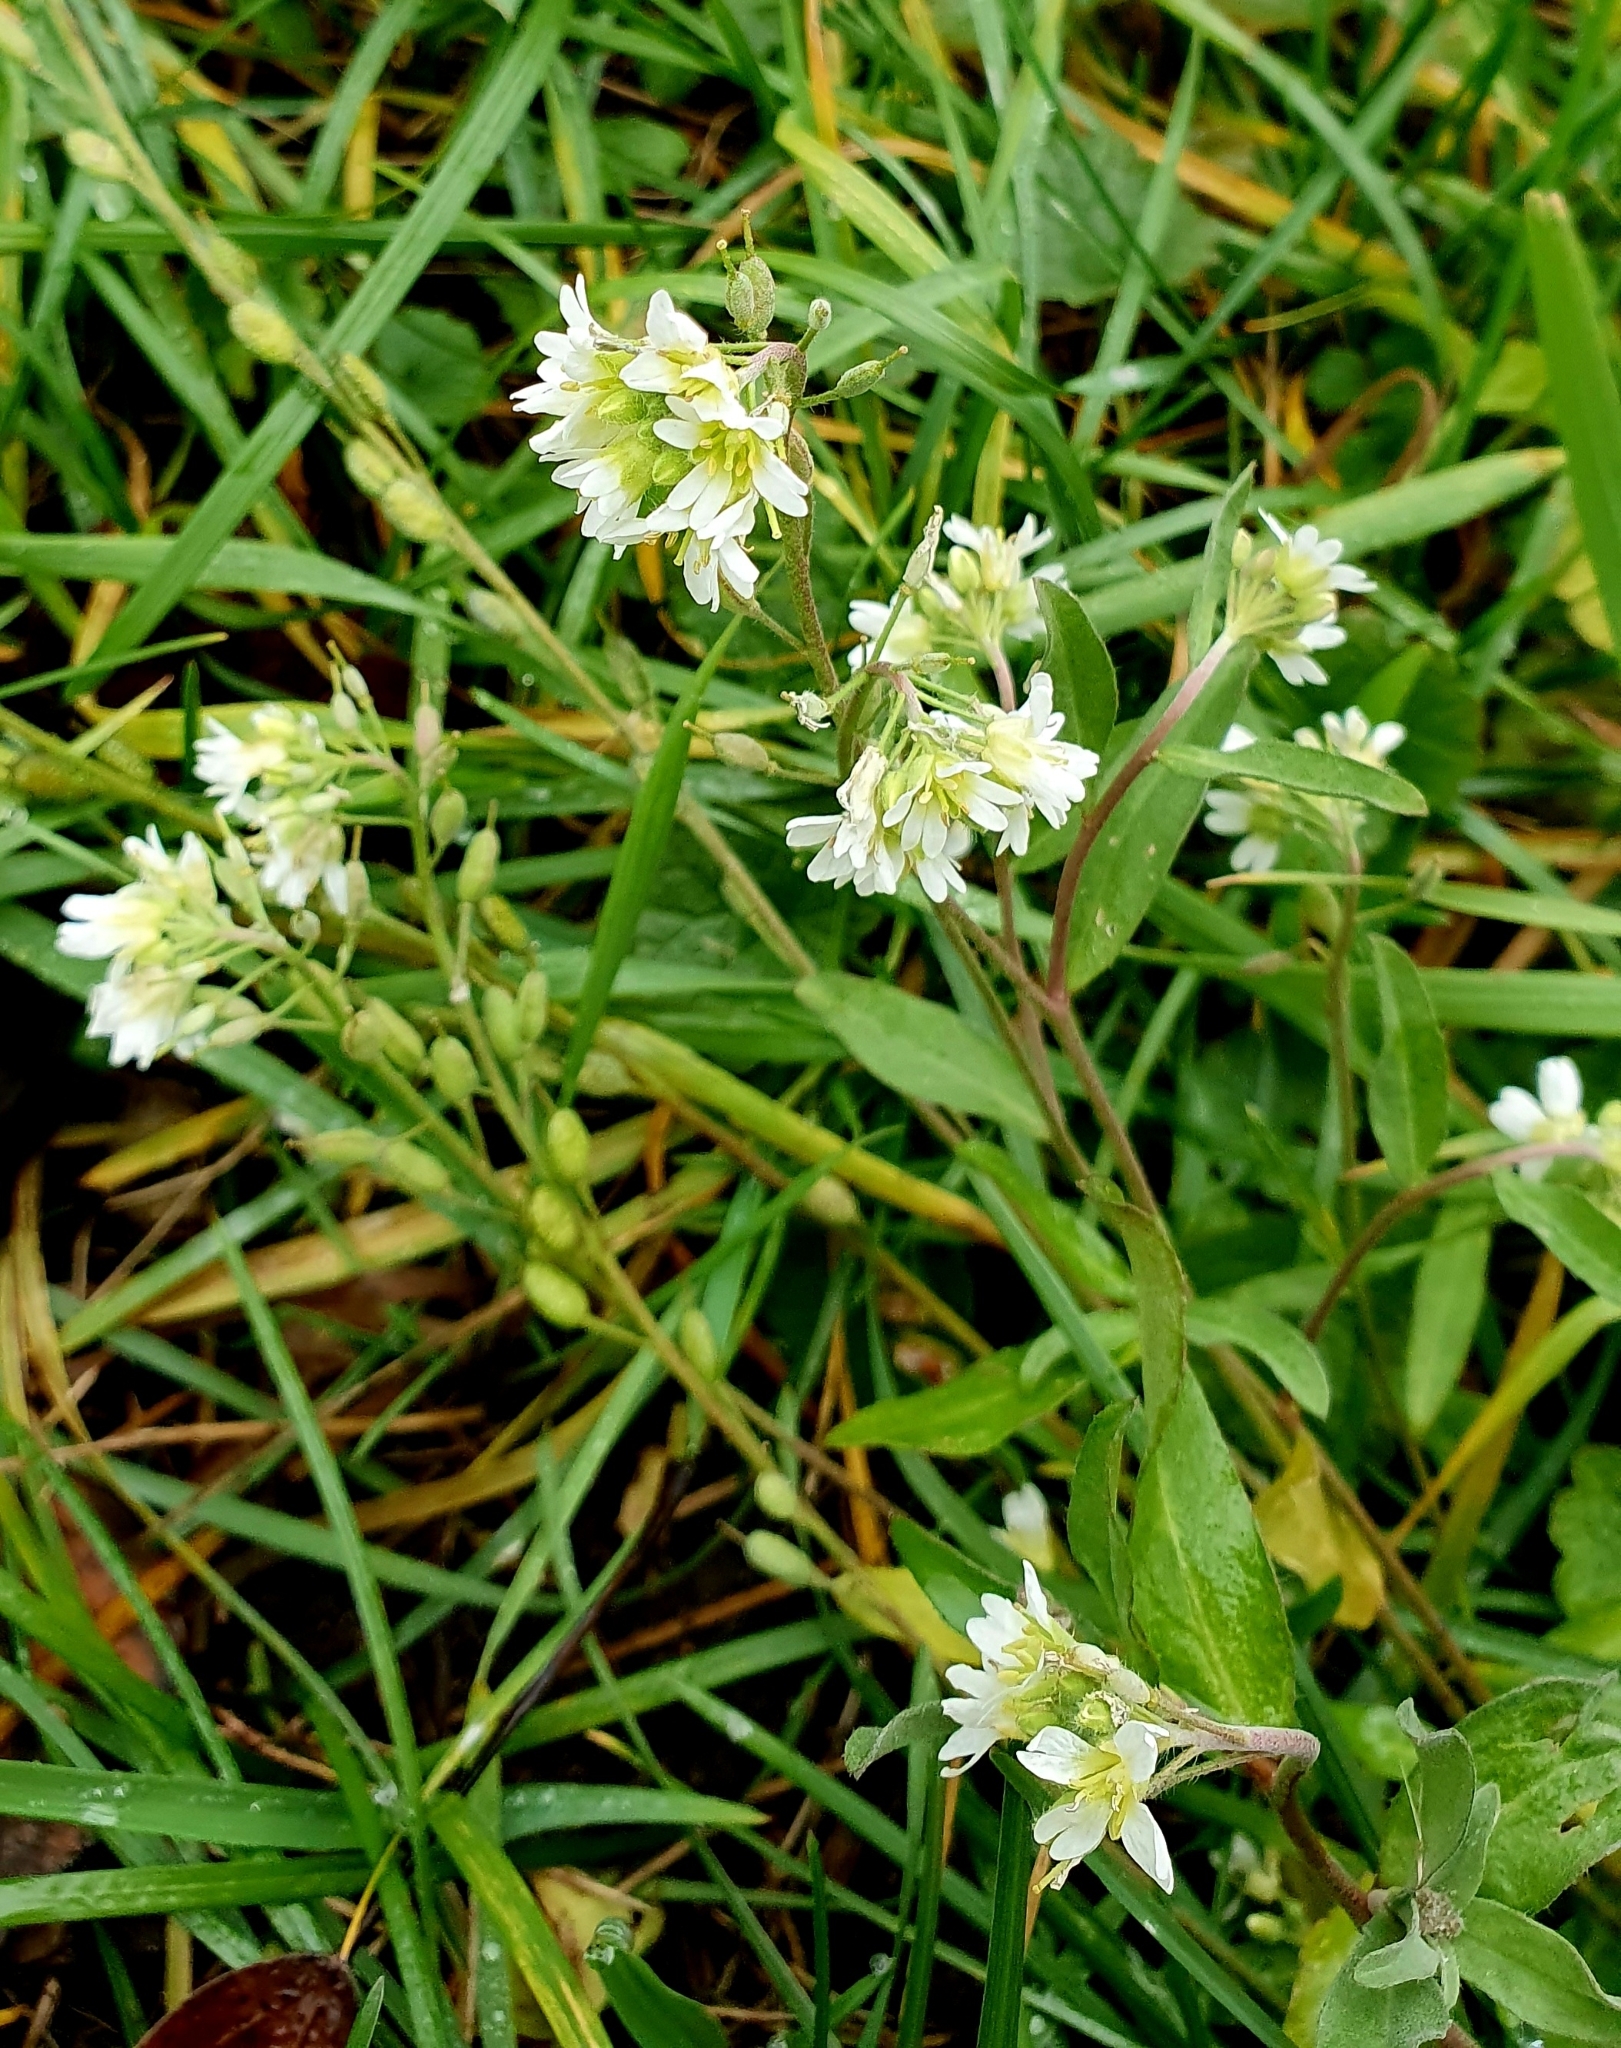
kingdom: Plantae
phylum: Tracheophyta
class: Magnoliopsida
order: Brassicales
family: Brassicaceae
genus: Berteroa
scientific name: Berteroa incana
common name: Hoary alison
